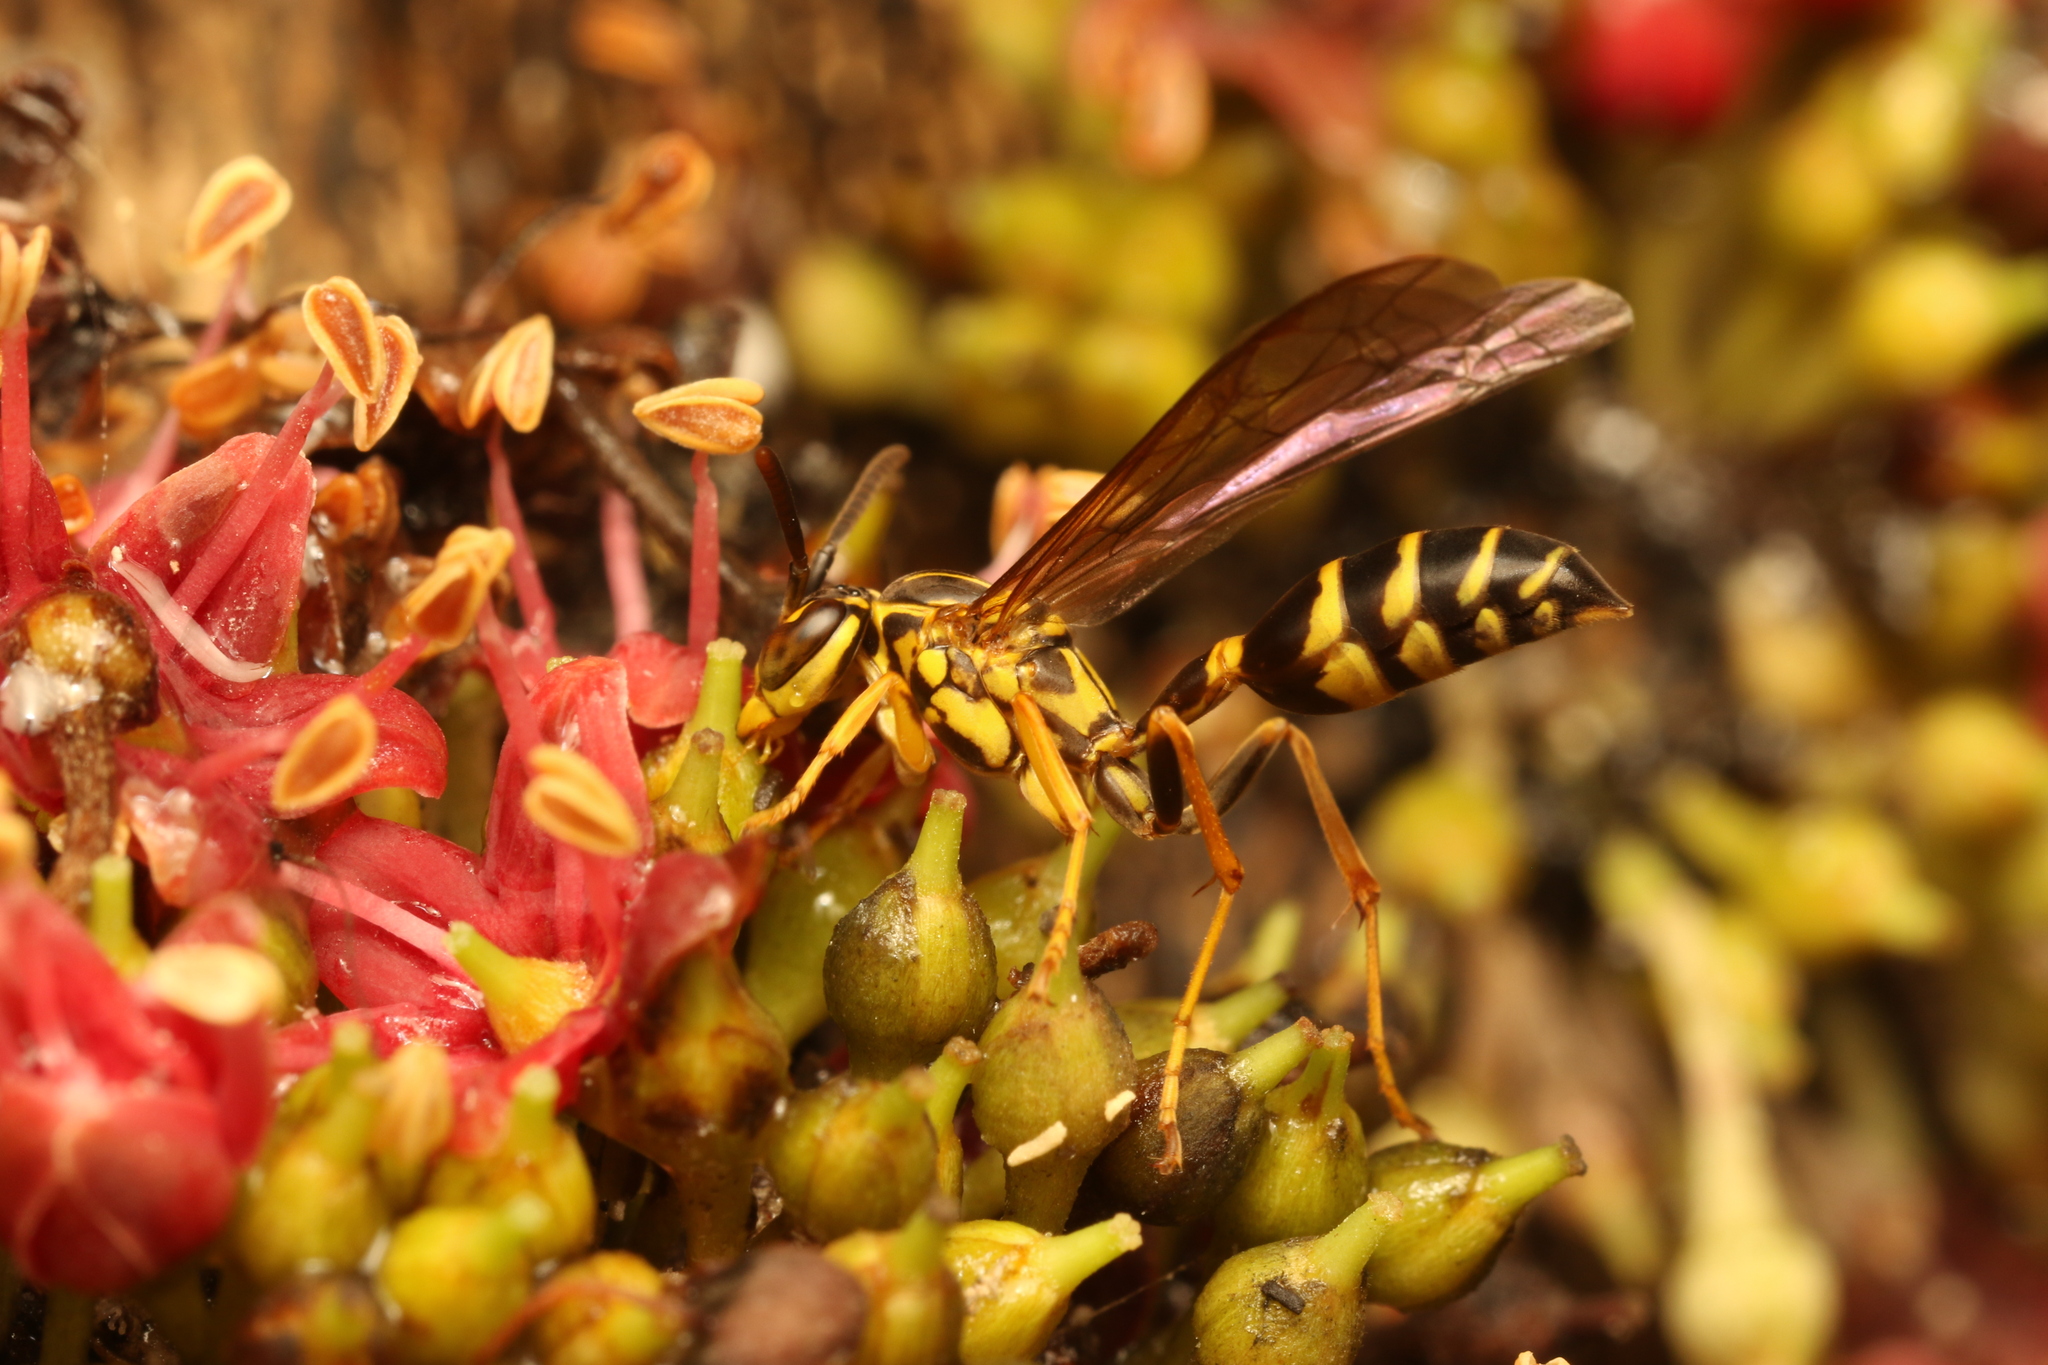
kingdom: Animalia
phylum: Arthropoda
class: Insecta
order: Hymenoptera
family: Vespidae
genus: Agelaia
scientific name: Agelaia multipicta
